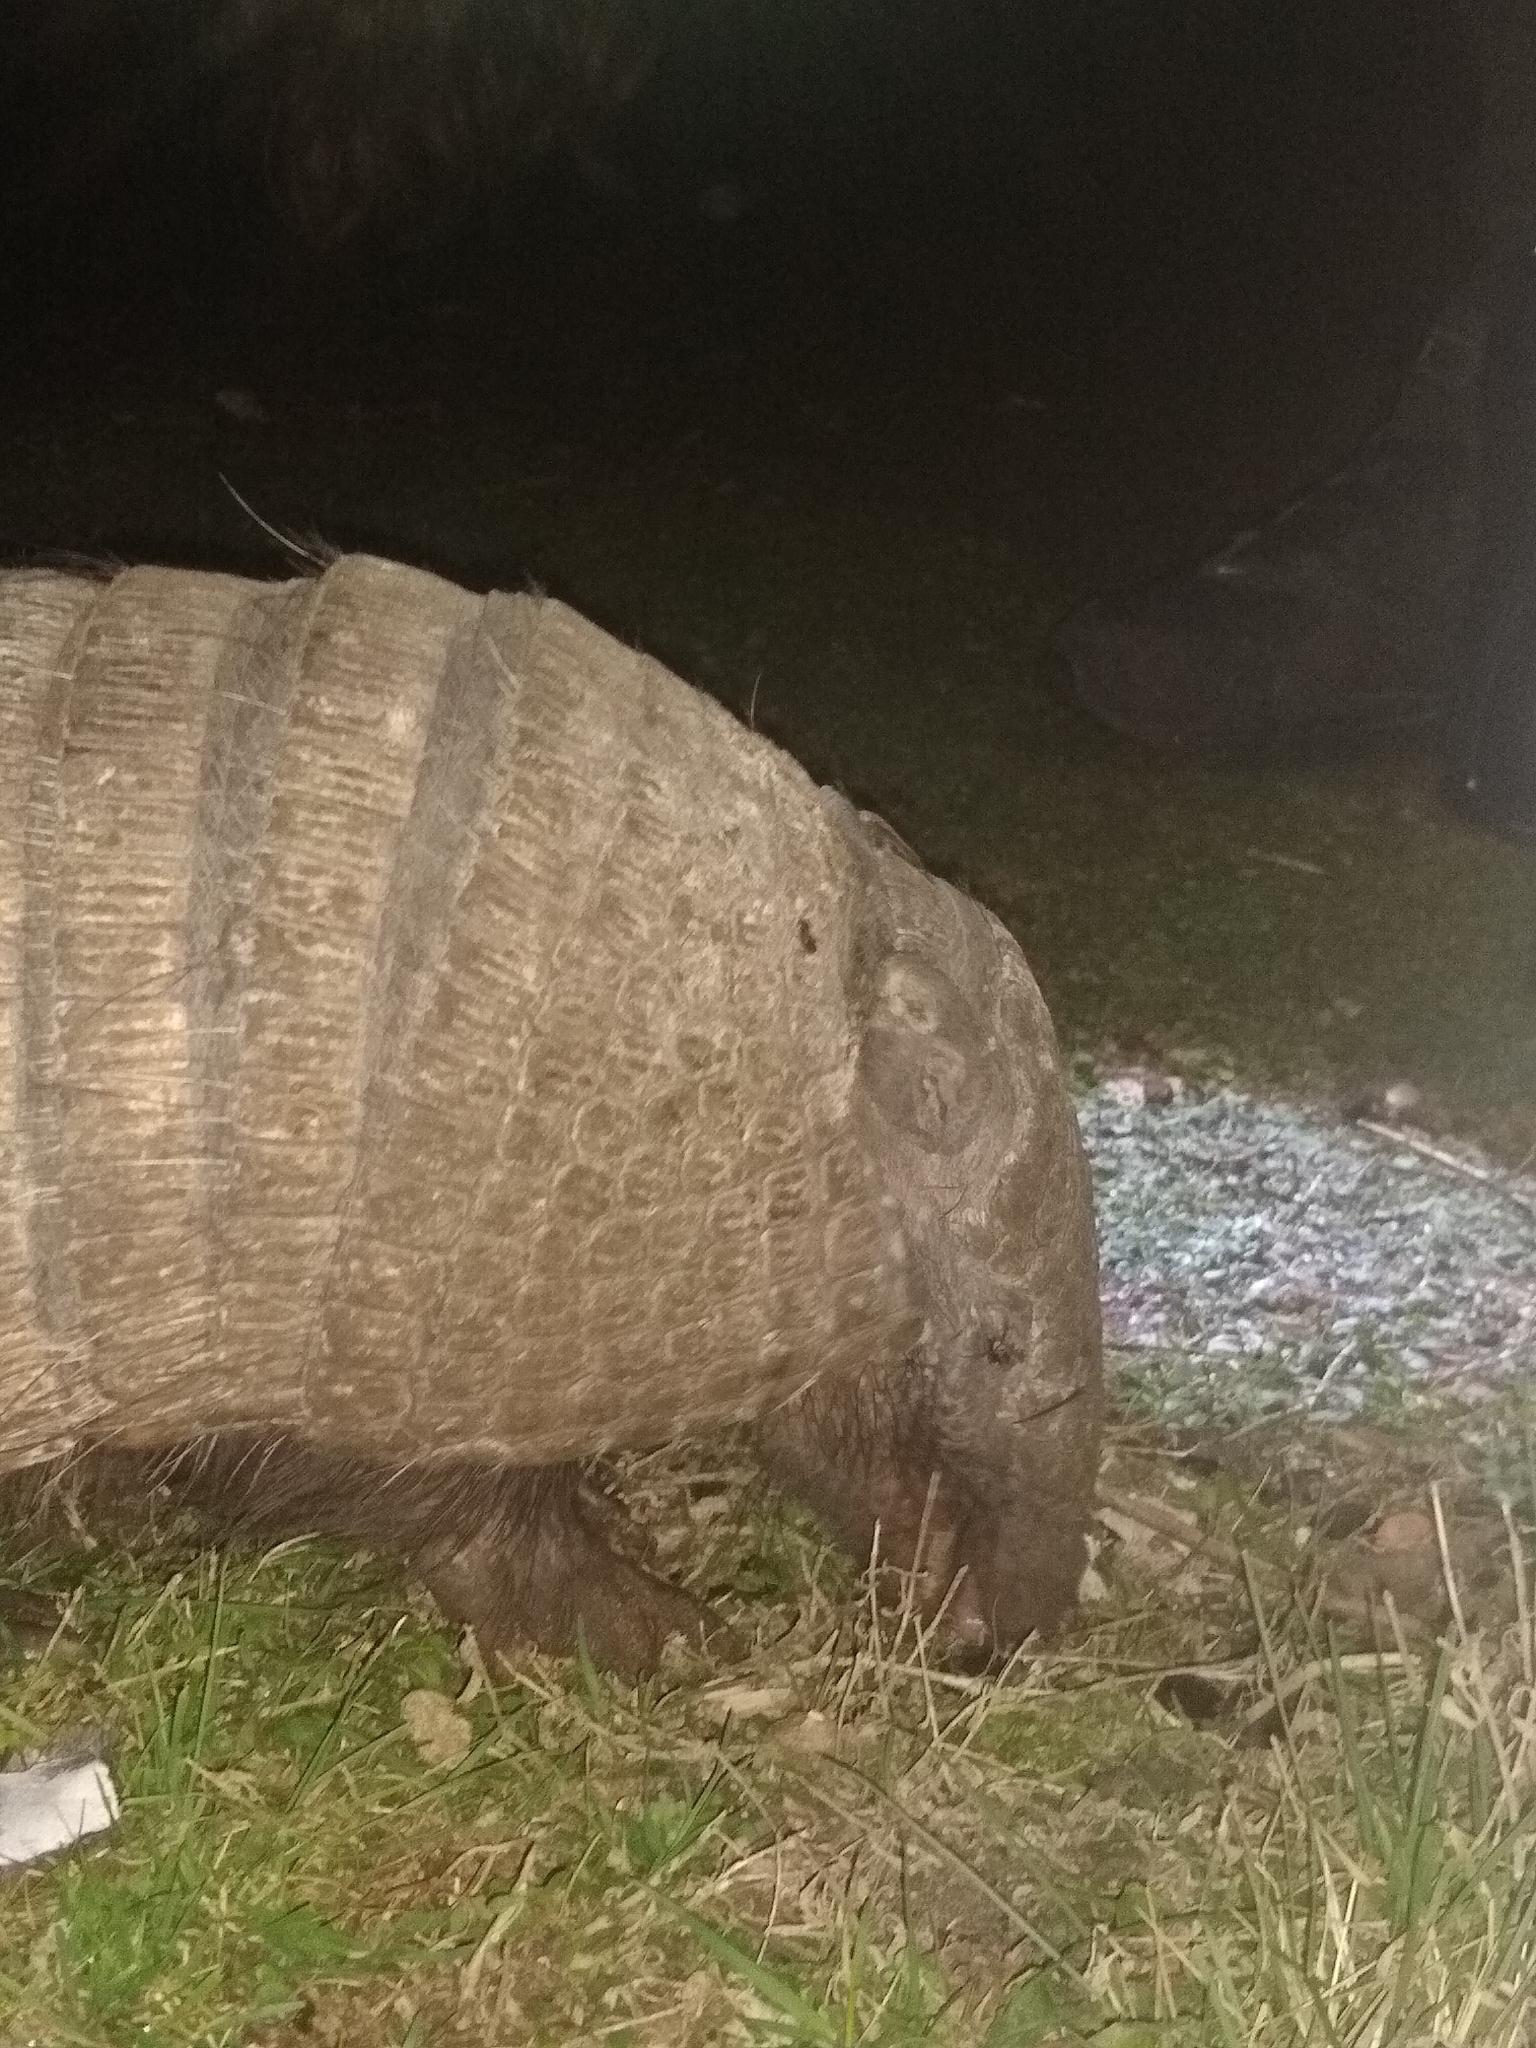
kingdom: Animalia
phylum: Chordata
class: Mammalia
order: Cingulata
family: Dasypodidae
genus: Euphractus
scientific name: Euphractus sexcinctus
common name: Six-banded armadillo
